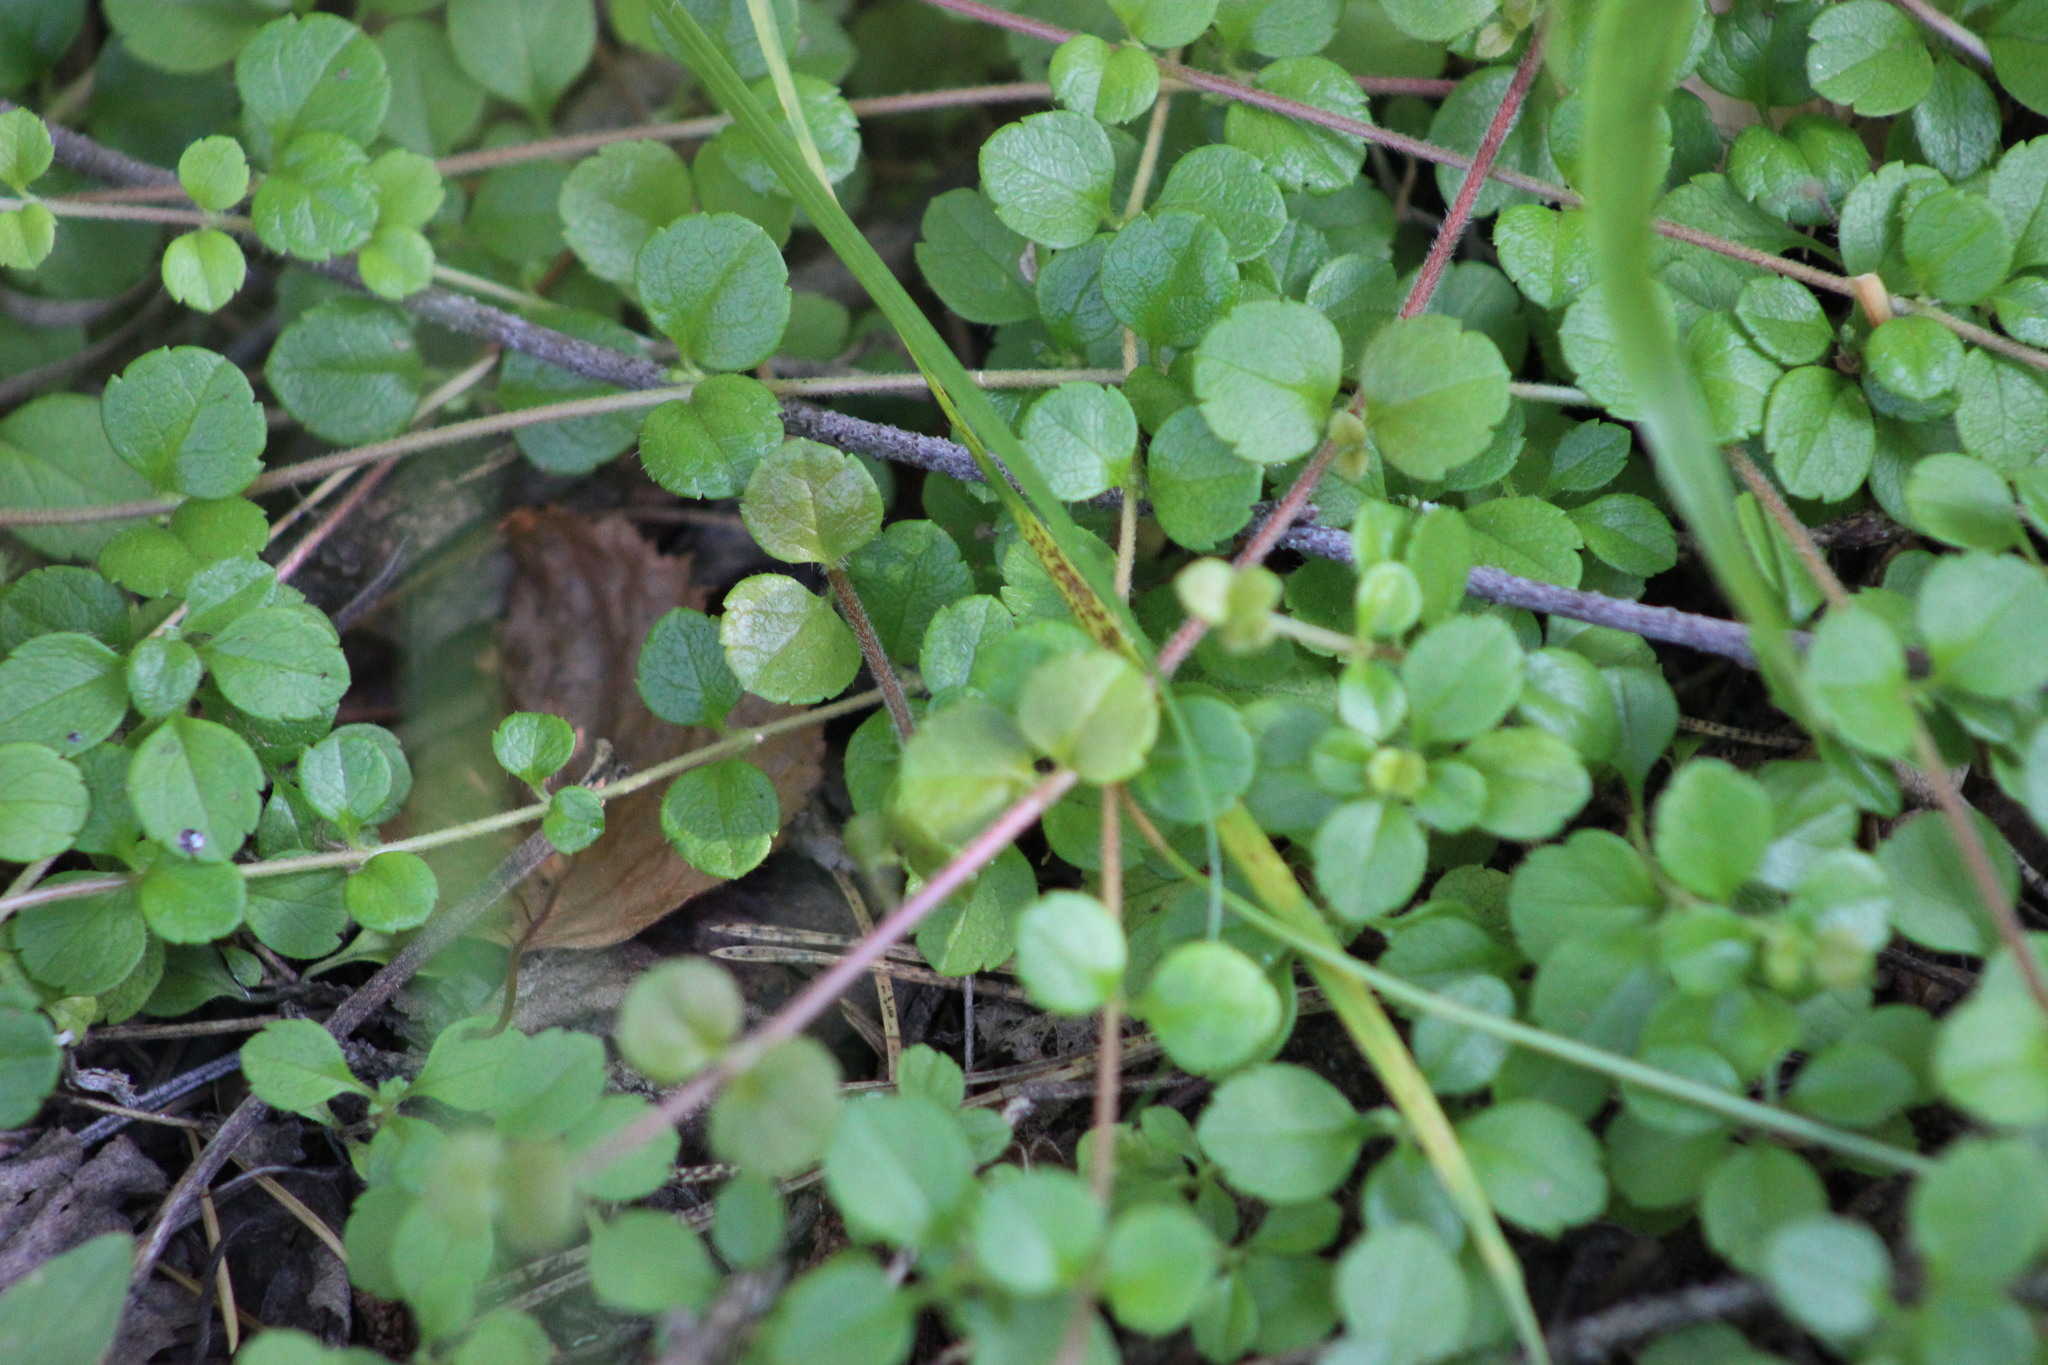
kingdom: Plantae
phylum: Tracheophyta
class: Magnoliopsida
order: Dipsacales
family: Caprifoliaceae
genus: Linnaea
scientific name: Linnaea borealis
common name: Twinflower
